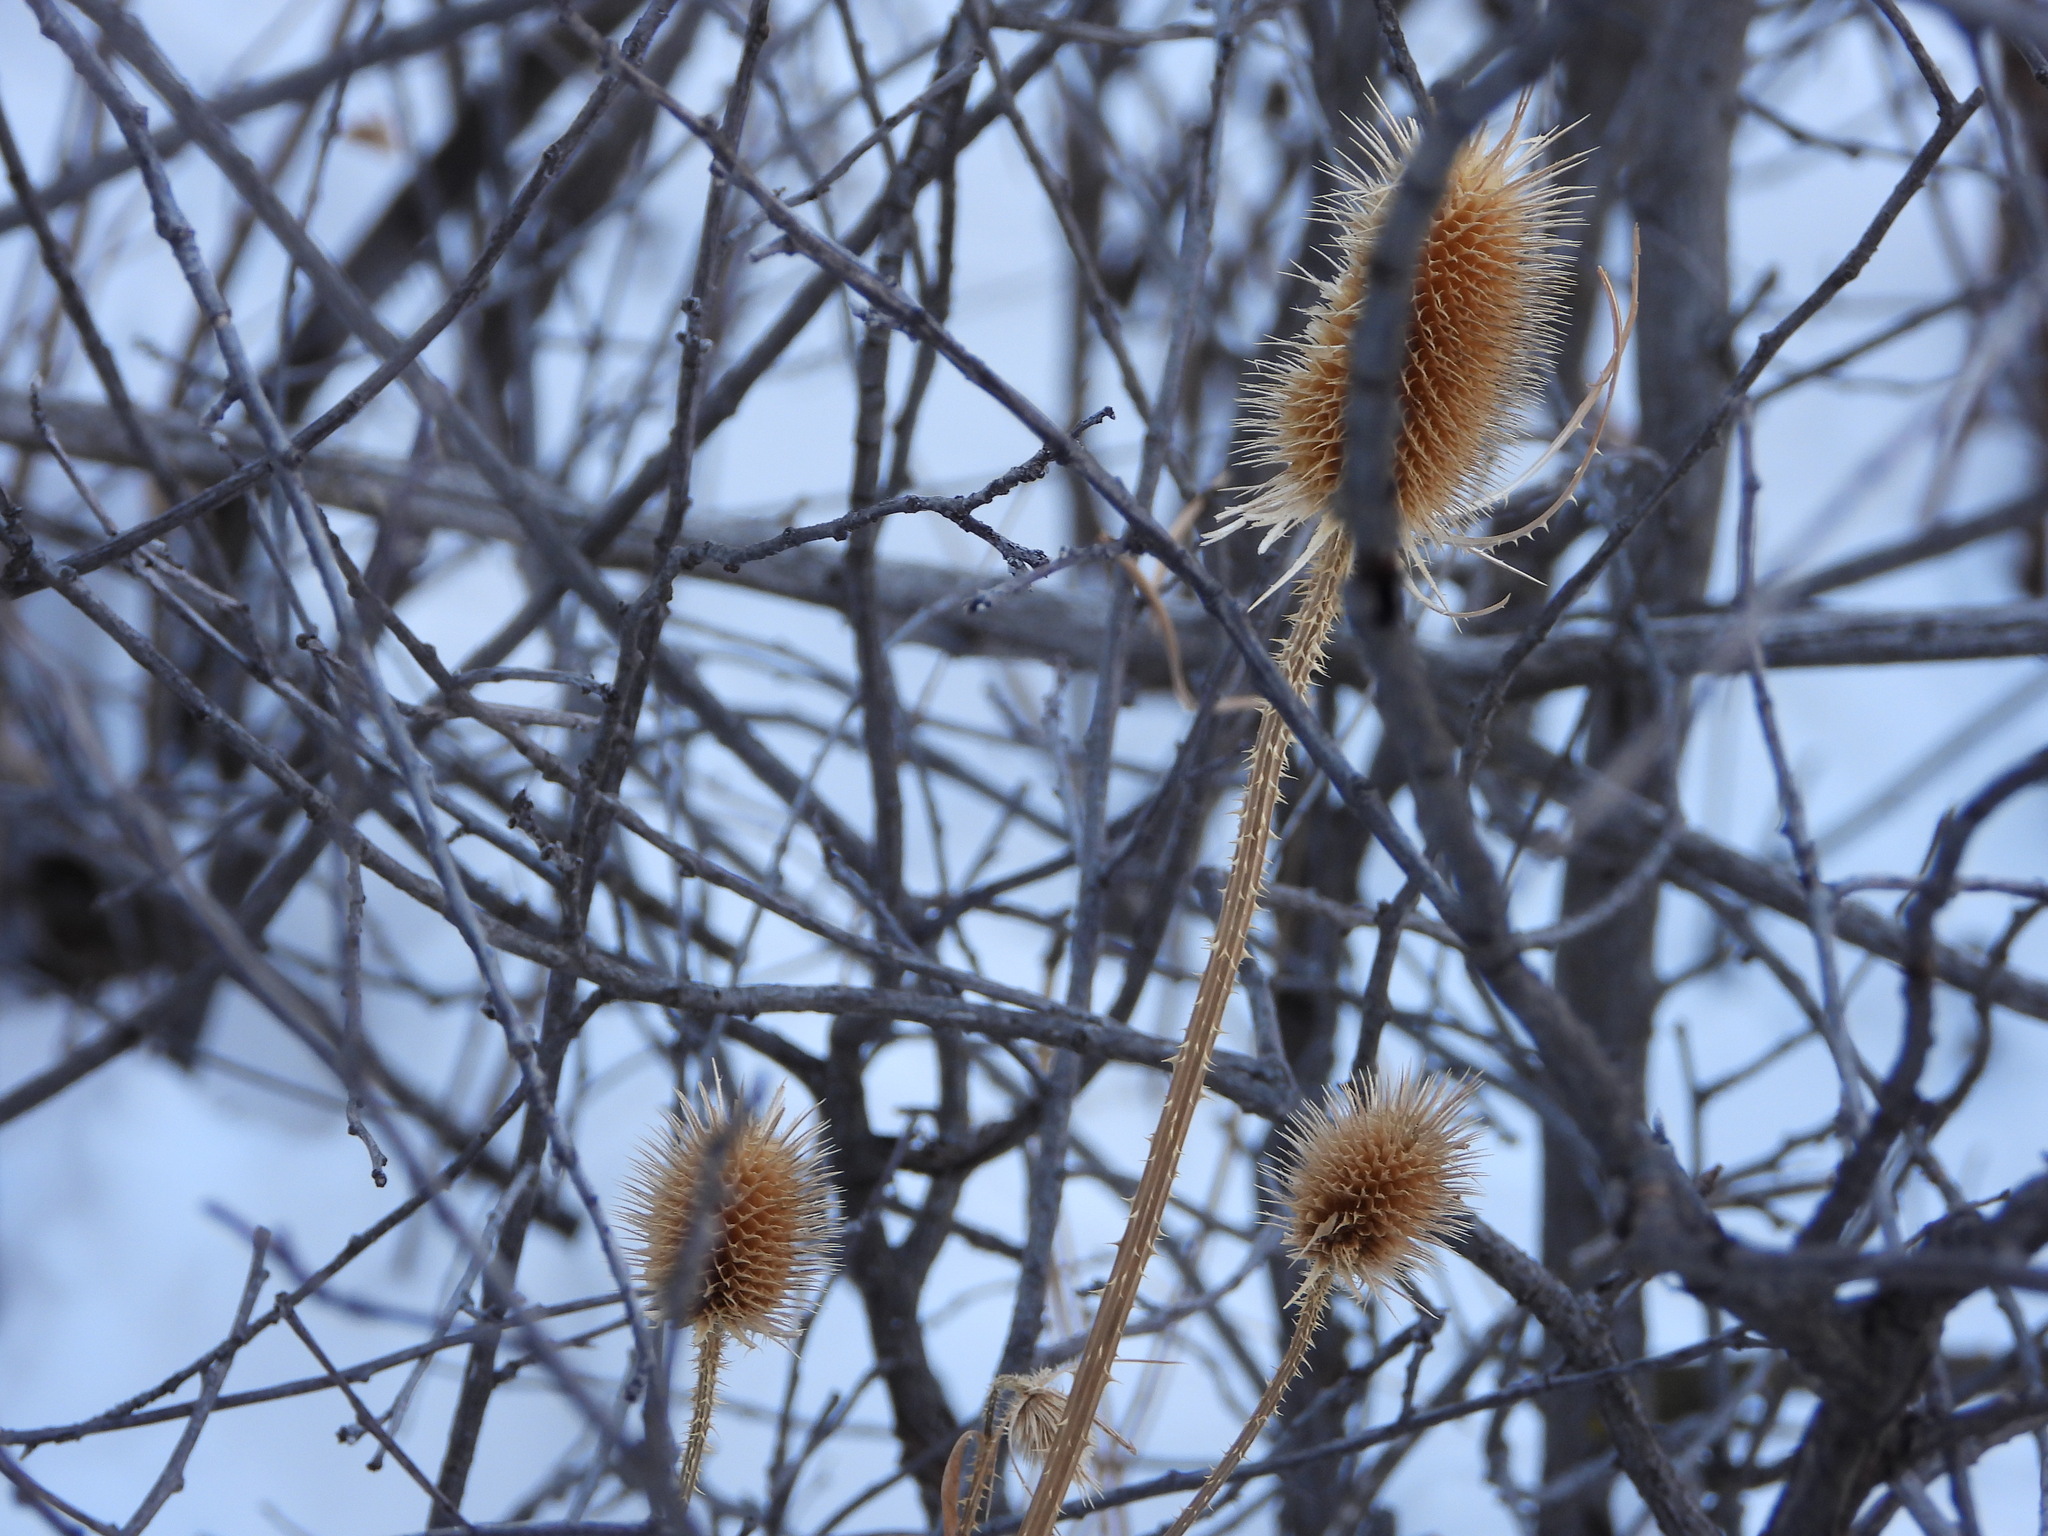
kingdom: Plantae
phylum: Tracheophyta
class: Magnoliopsida
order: Dipsacales
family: Caprifoliaceae
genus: Dipsacus
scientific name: Dipsacus fullonum
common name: Teasel
